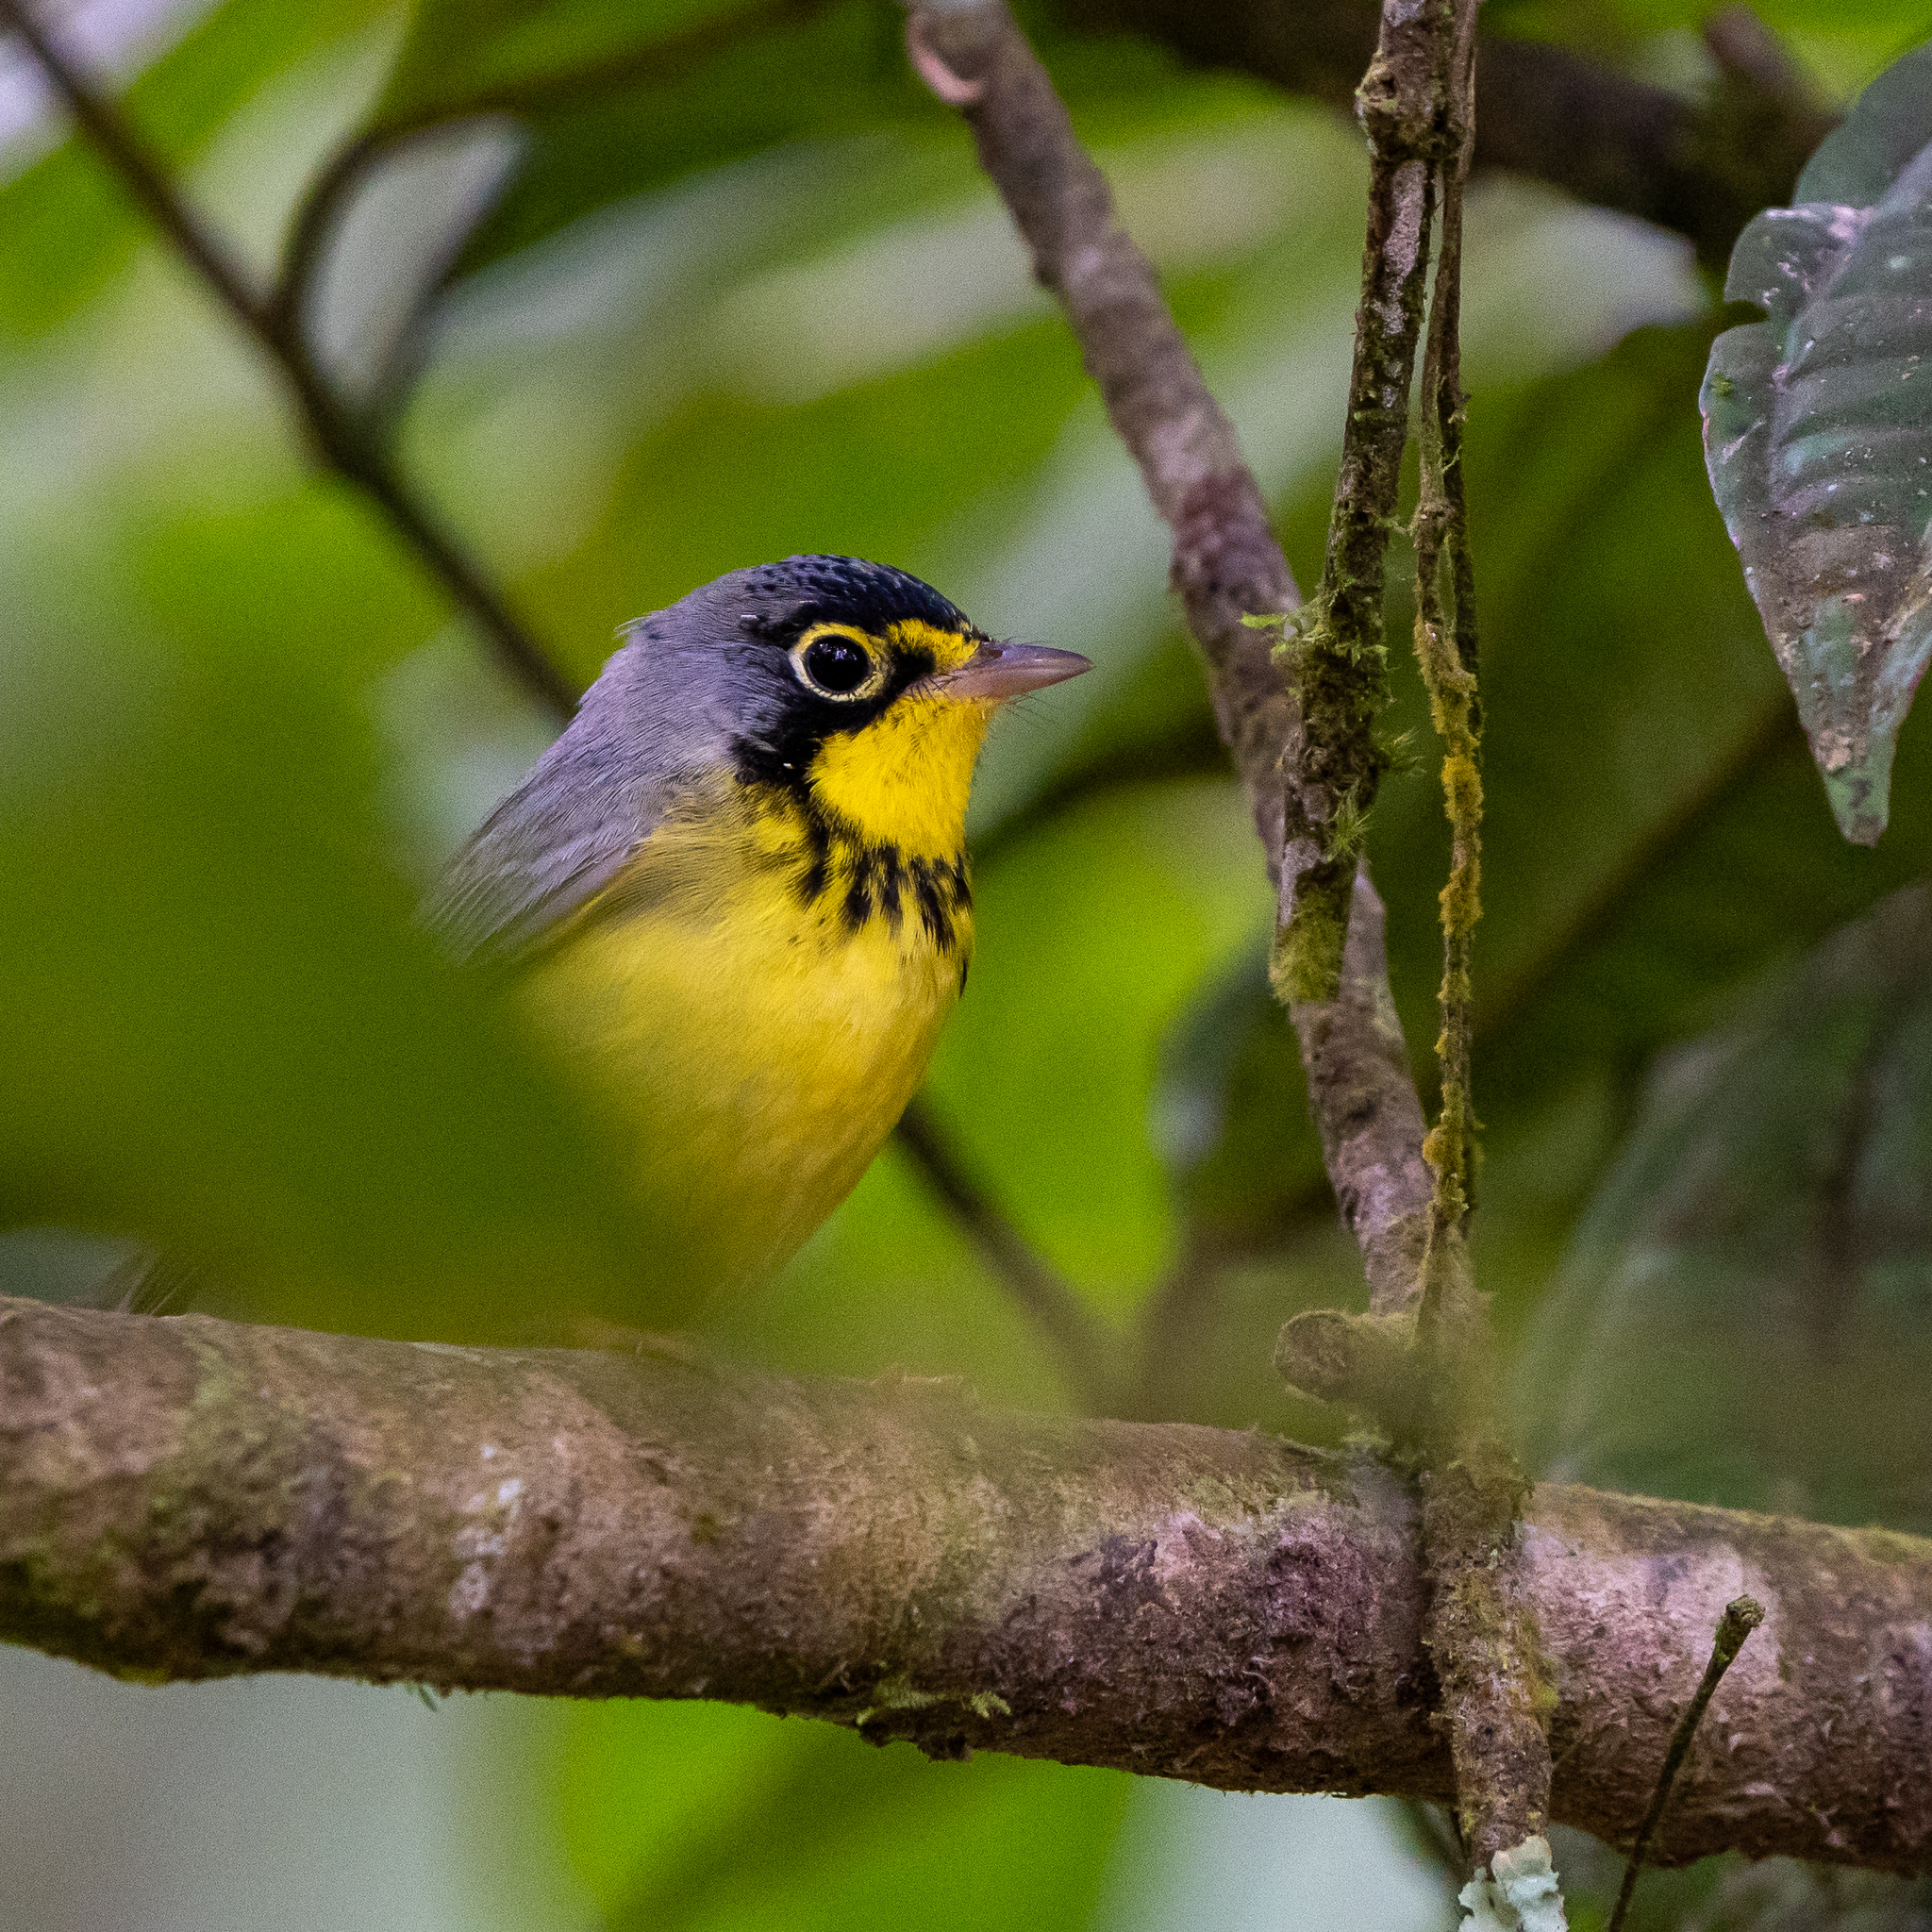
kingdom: Animalia
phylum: Chordata
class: Aves
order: Passeriformes
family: Parulidae
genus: Cardellina
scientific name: Cardellina canadensis
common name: Canada warbler
